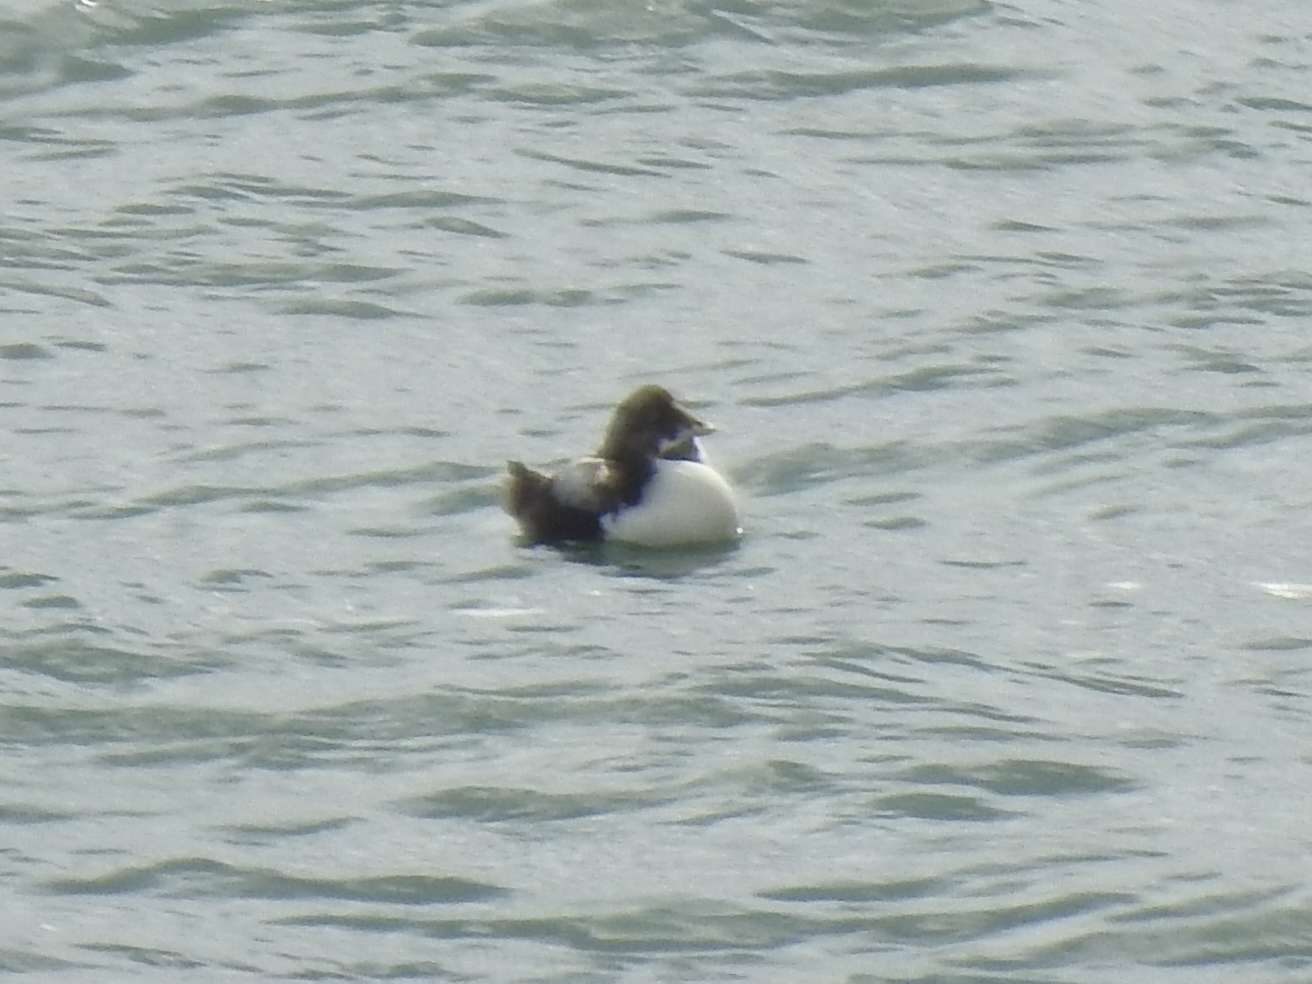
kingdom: Animalia
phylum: Chordata
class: Aves
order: Anseriformes
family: Anatidae
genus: Somateria
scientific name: Somateria mollissima
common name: Common eider
